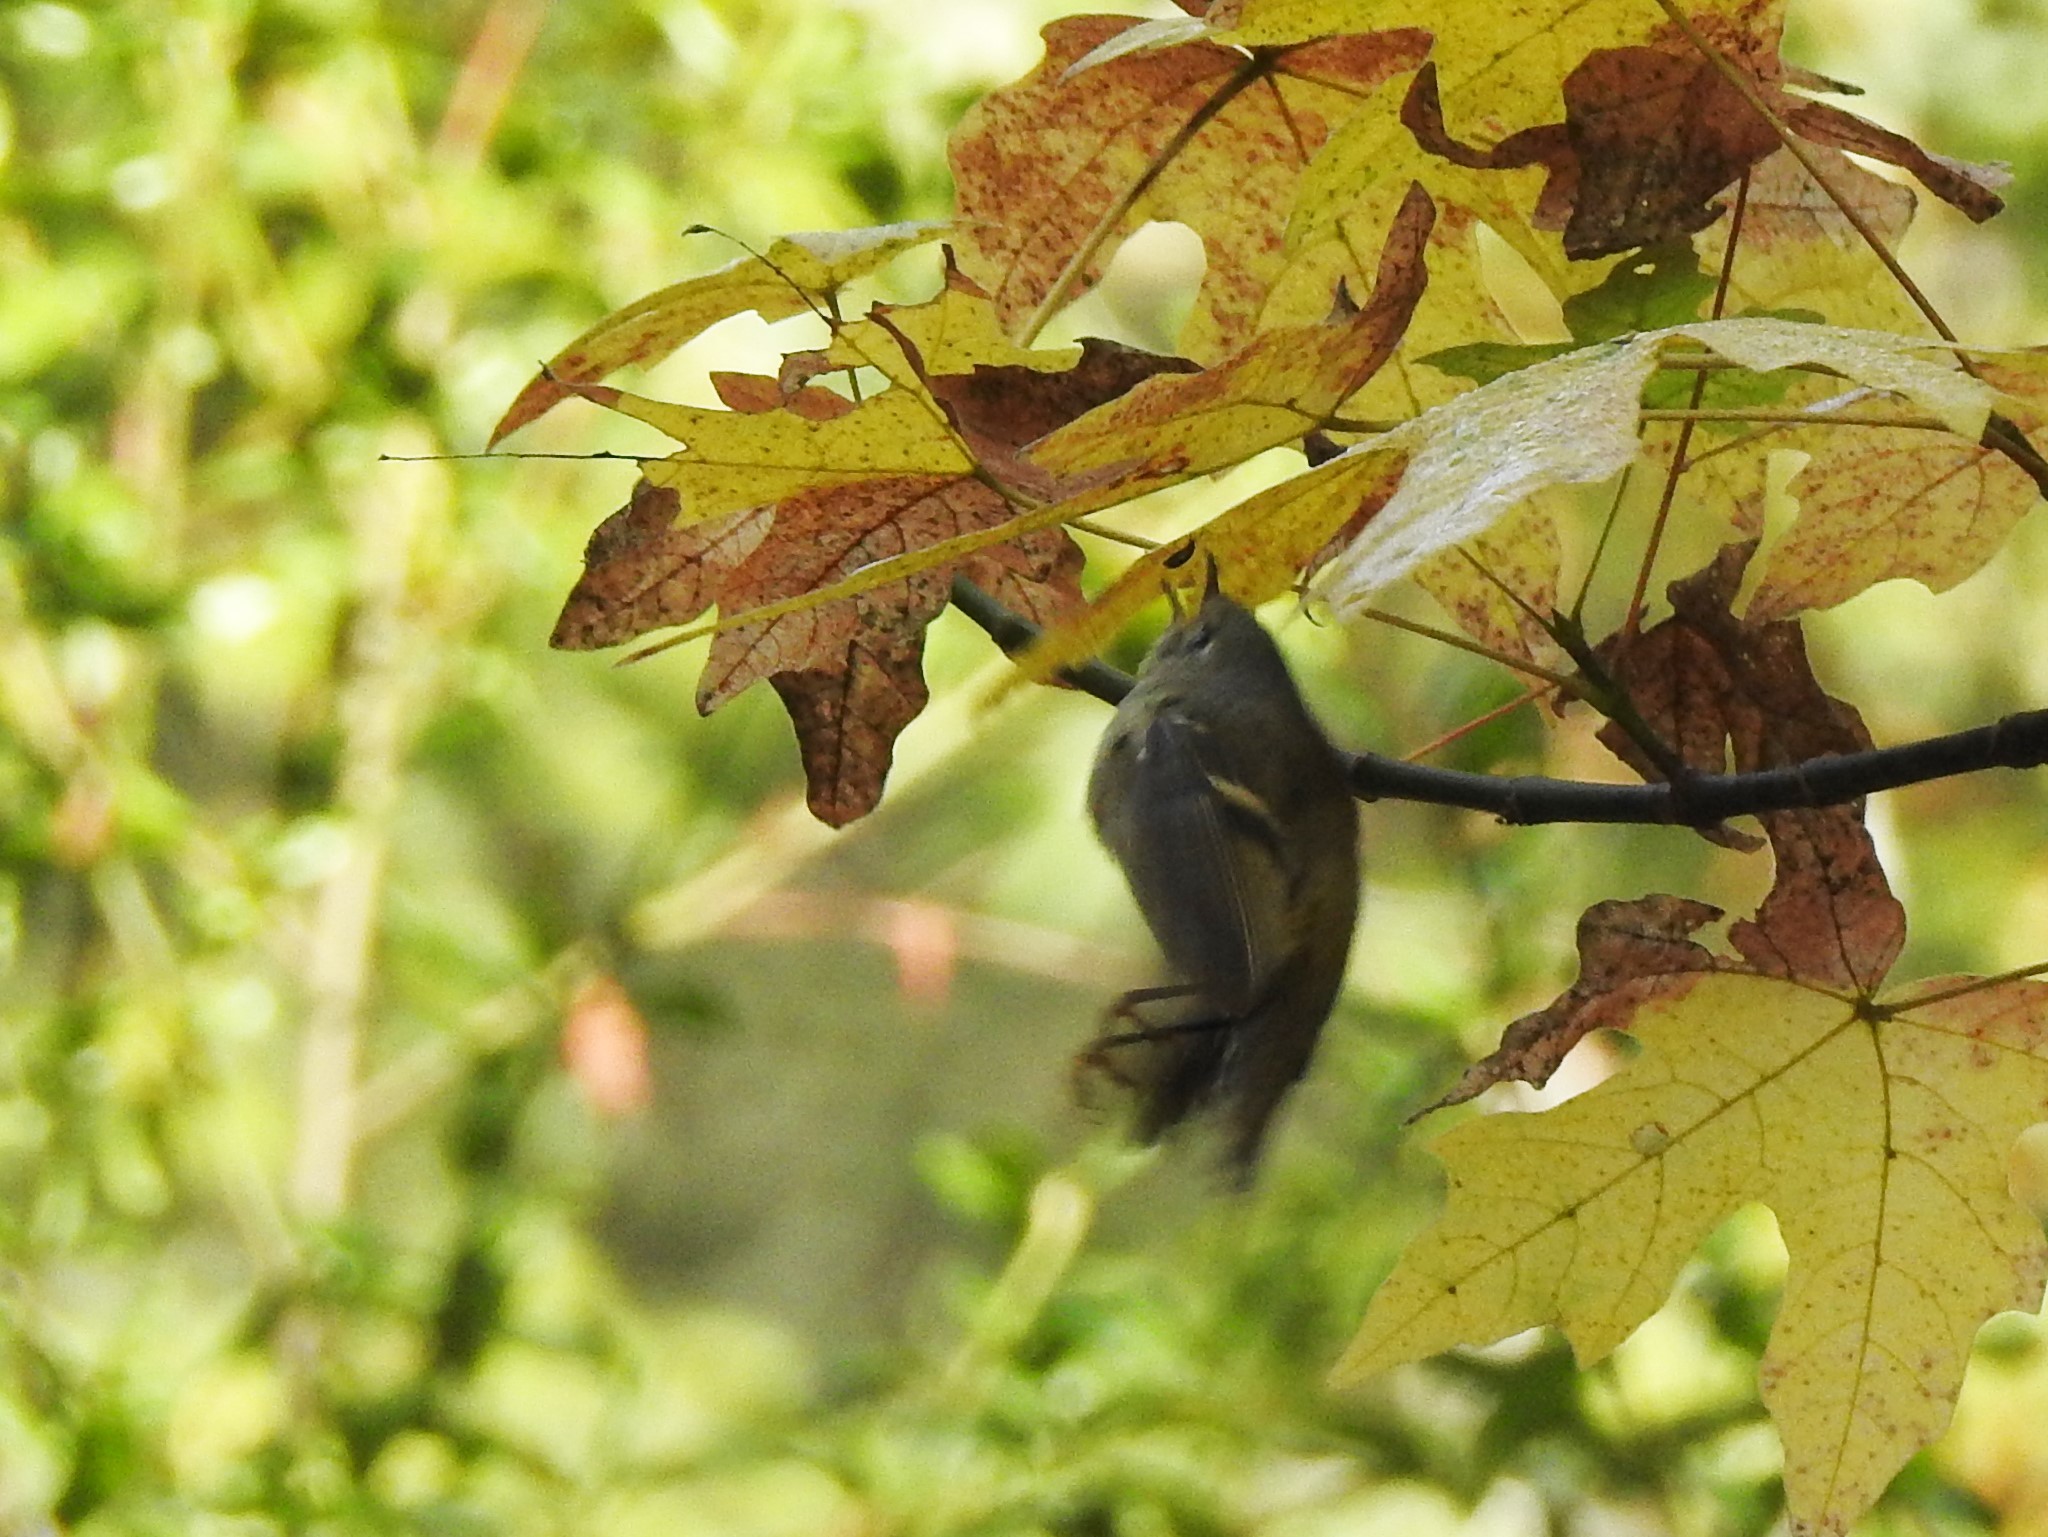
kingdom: Animalia
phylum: Chordata
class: Aves
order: Passeriformes
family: Regulidae
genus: Regulus
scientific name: Regulus calendula
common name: Ruby-crowned kinglet
